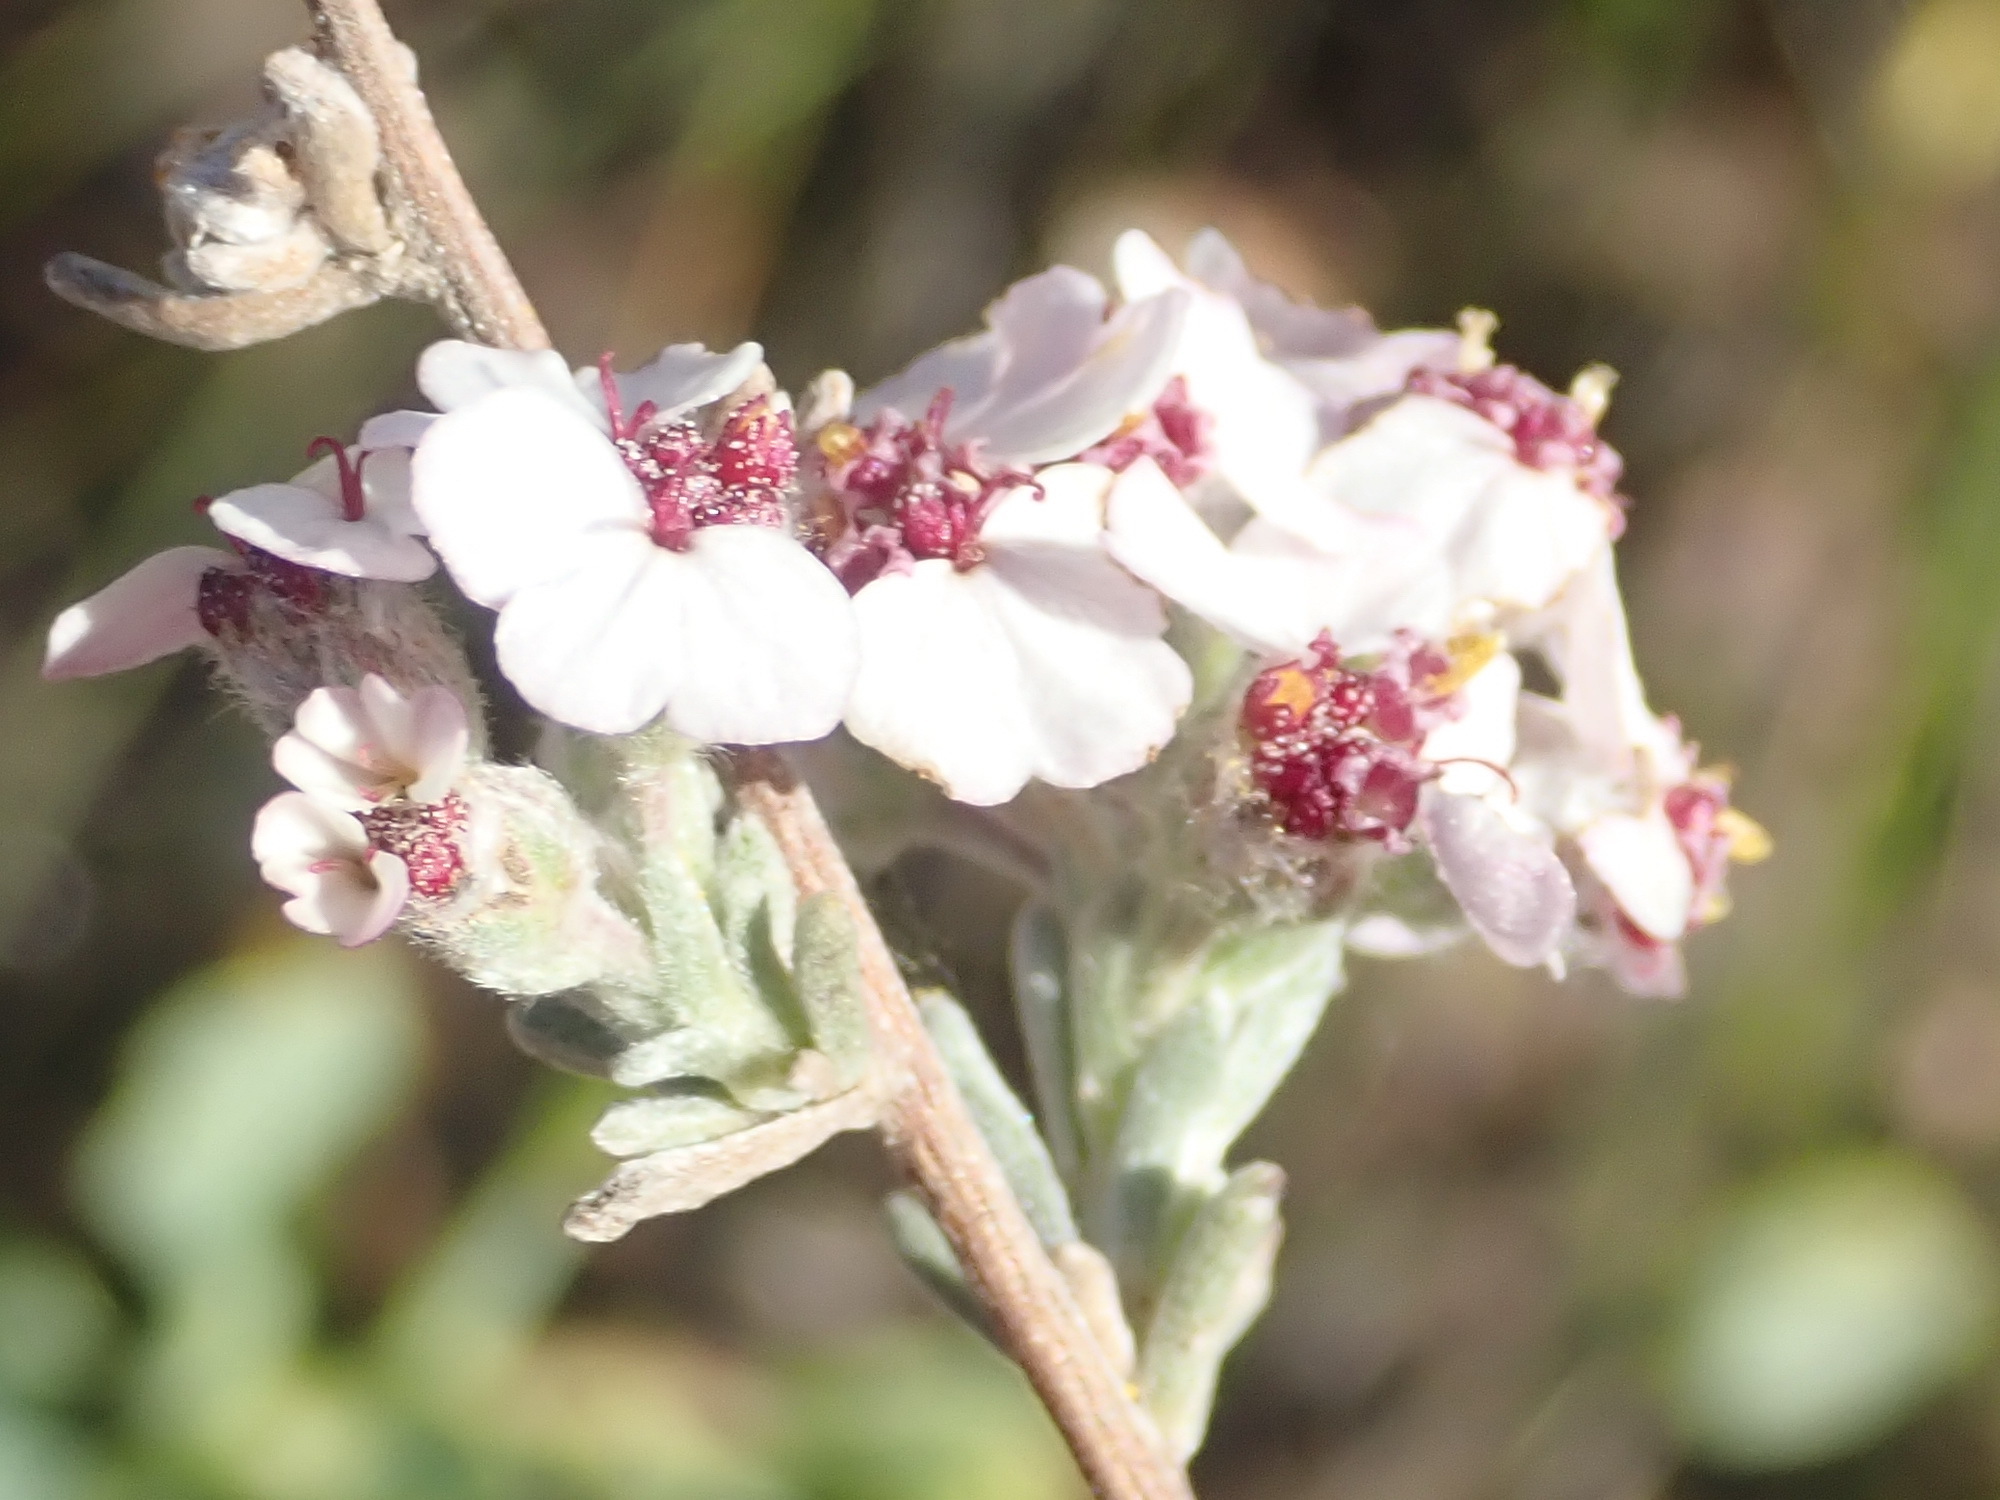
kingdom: Plantae
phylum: Tracheophyta
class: Magnoliopsida
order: Asterales
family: Asteraceae
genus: Eriocephalus
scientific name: Eriocephalus tenuipes
